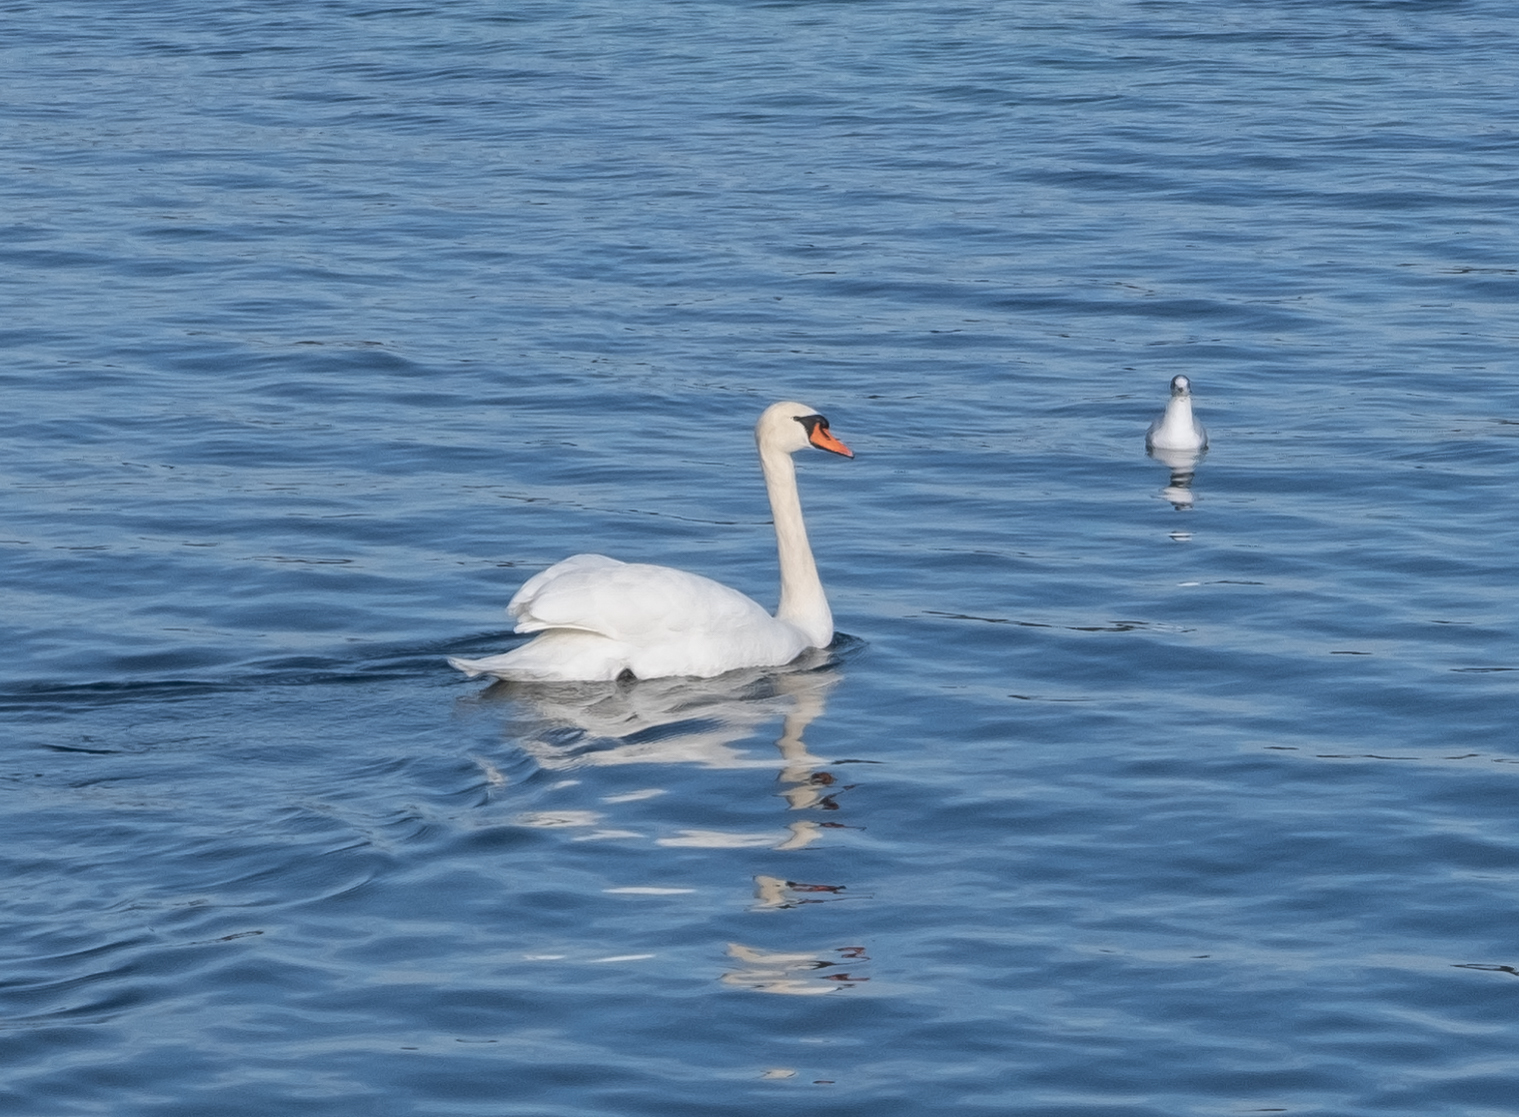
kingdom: Animalia
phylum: Chordata
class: Aves
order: Anseriformes
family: Anatidae
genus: Cygnus
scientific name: Cygnus olor
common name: Mute swan
